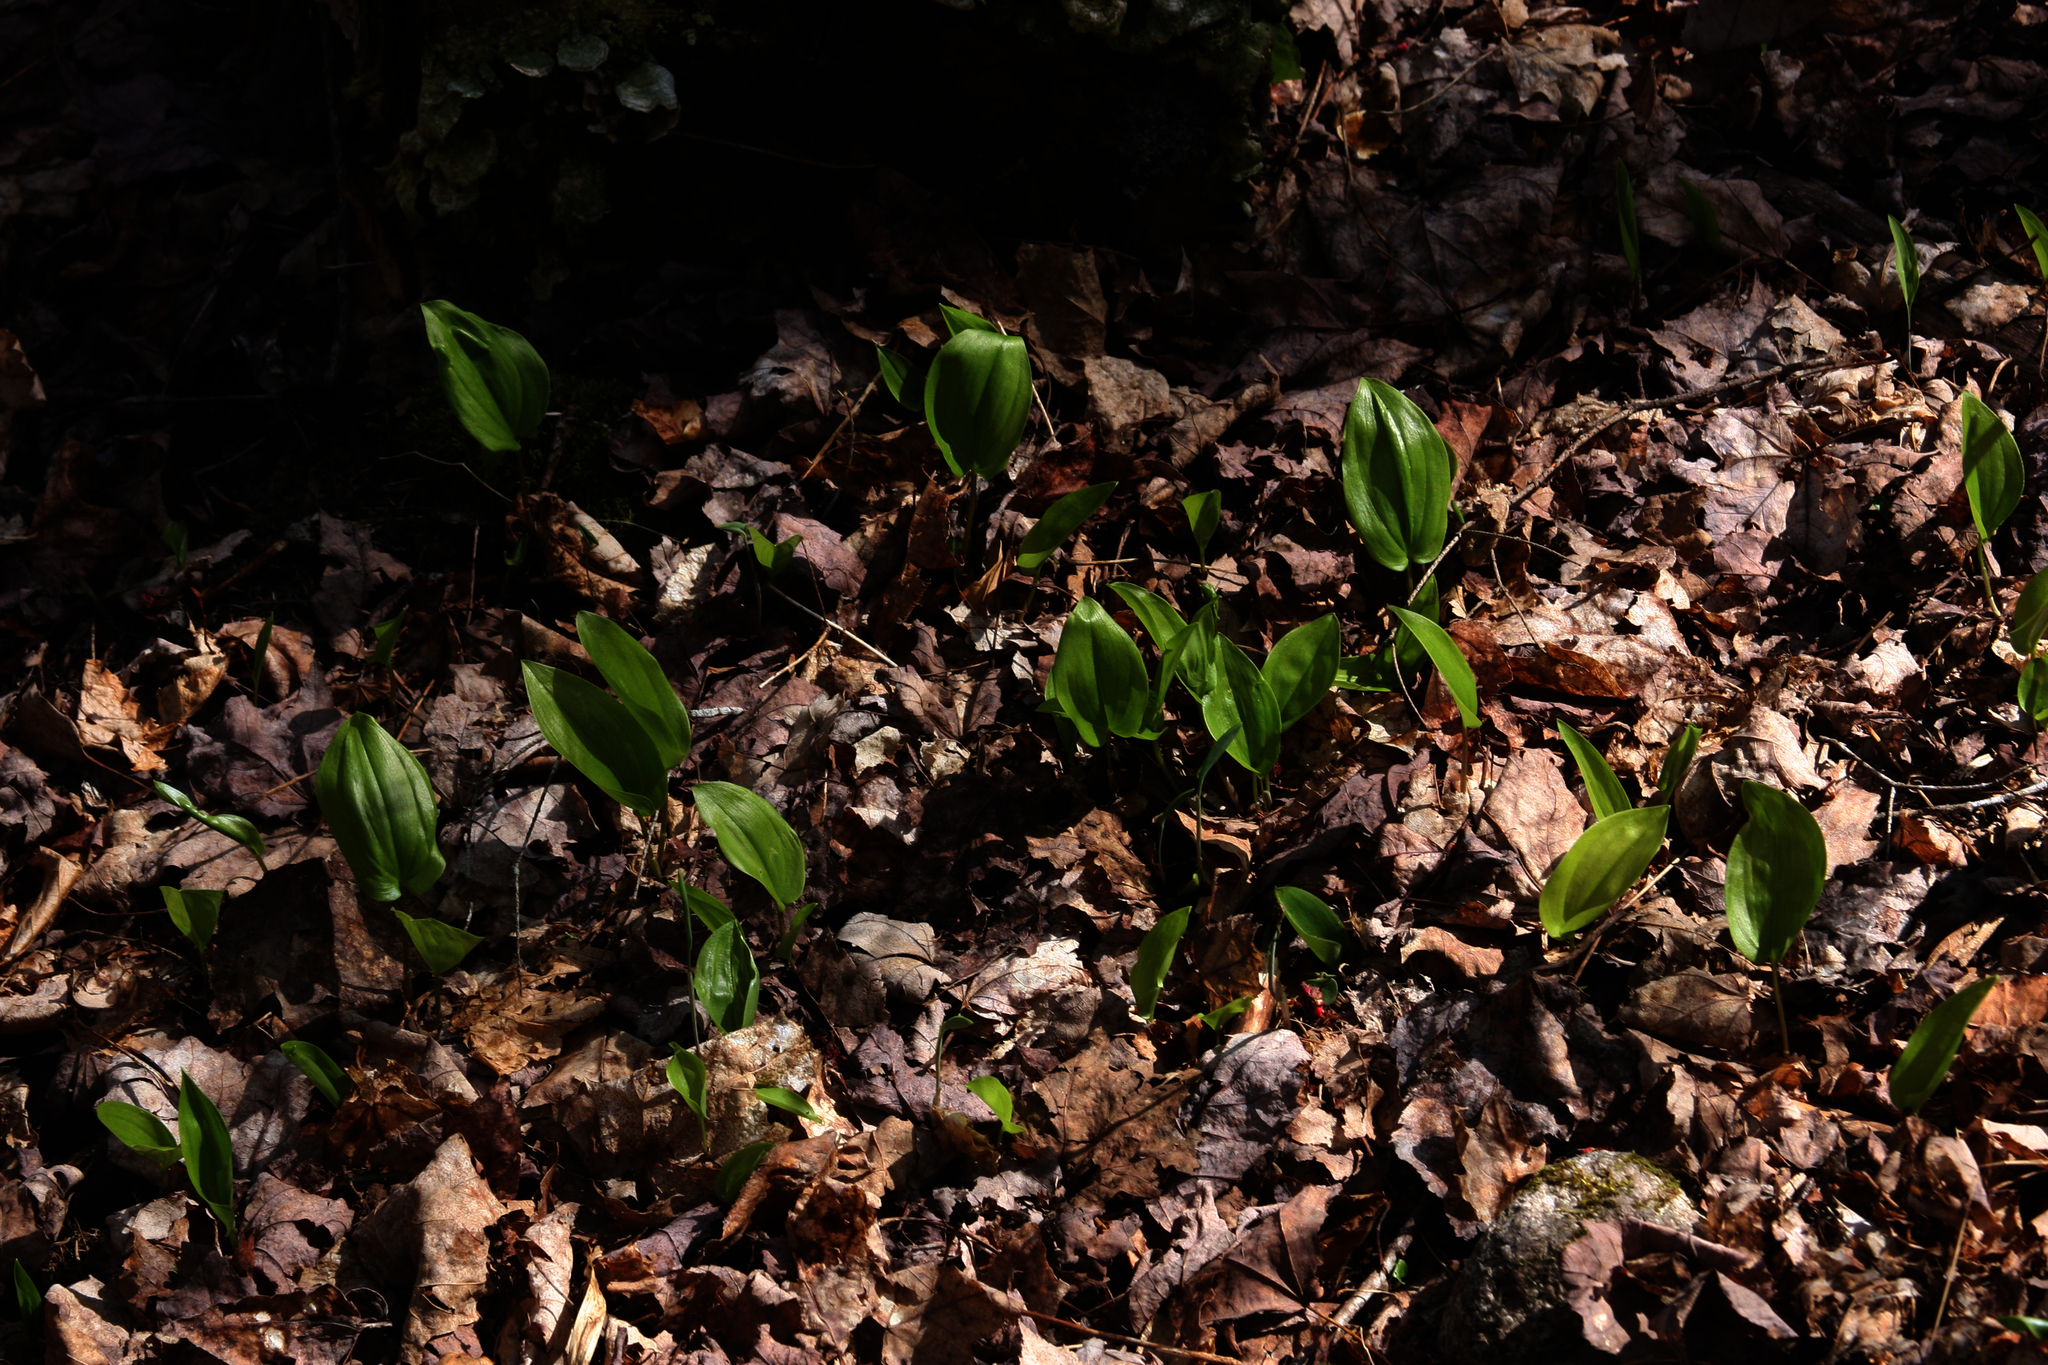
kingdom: Plantae
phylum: Tracheophyta
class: Liliopsida
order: Asparagales
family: Asparagaceae
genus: Maianthemum
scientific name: Maianthemum canadense
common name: False lily-of-the-valley
